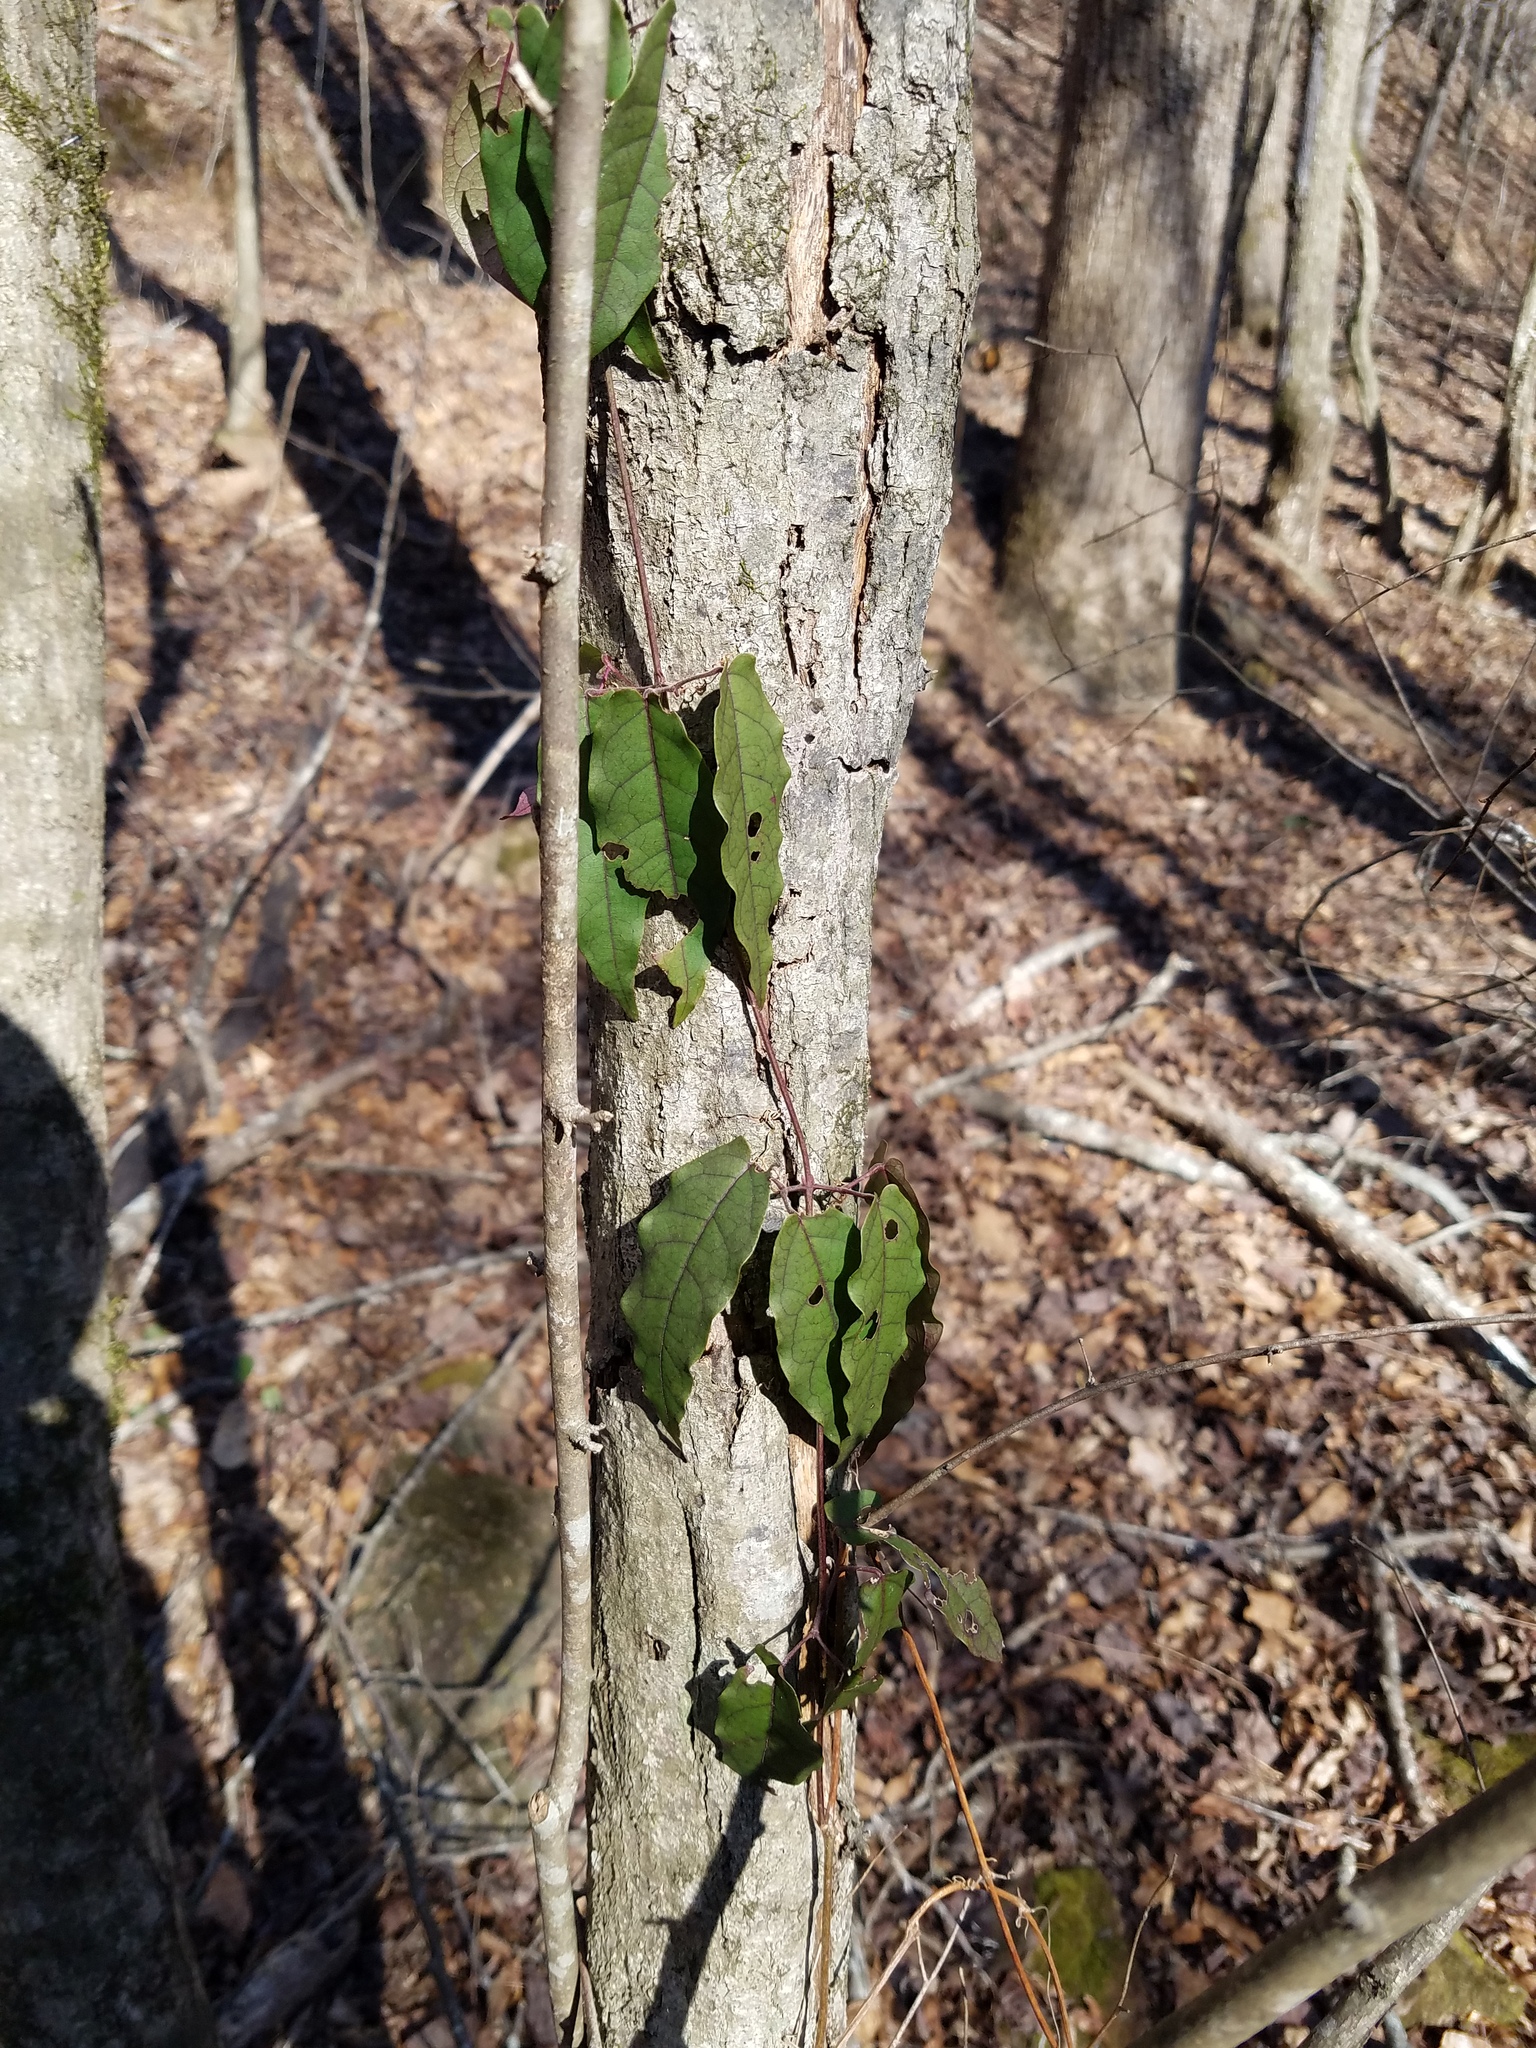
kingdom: Plantae
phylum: Tracheophyta
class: Magnoliopsida
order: Lamiales
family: Bignoniaceae
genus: Bignonia
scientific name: Bignonia capreolata
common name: Crossvine
